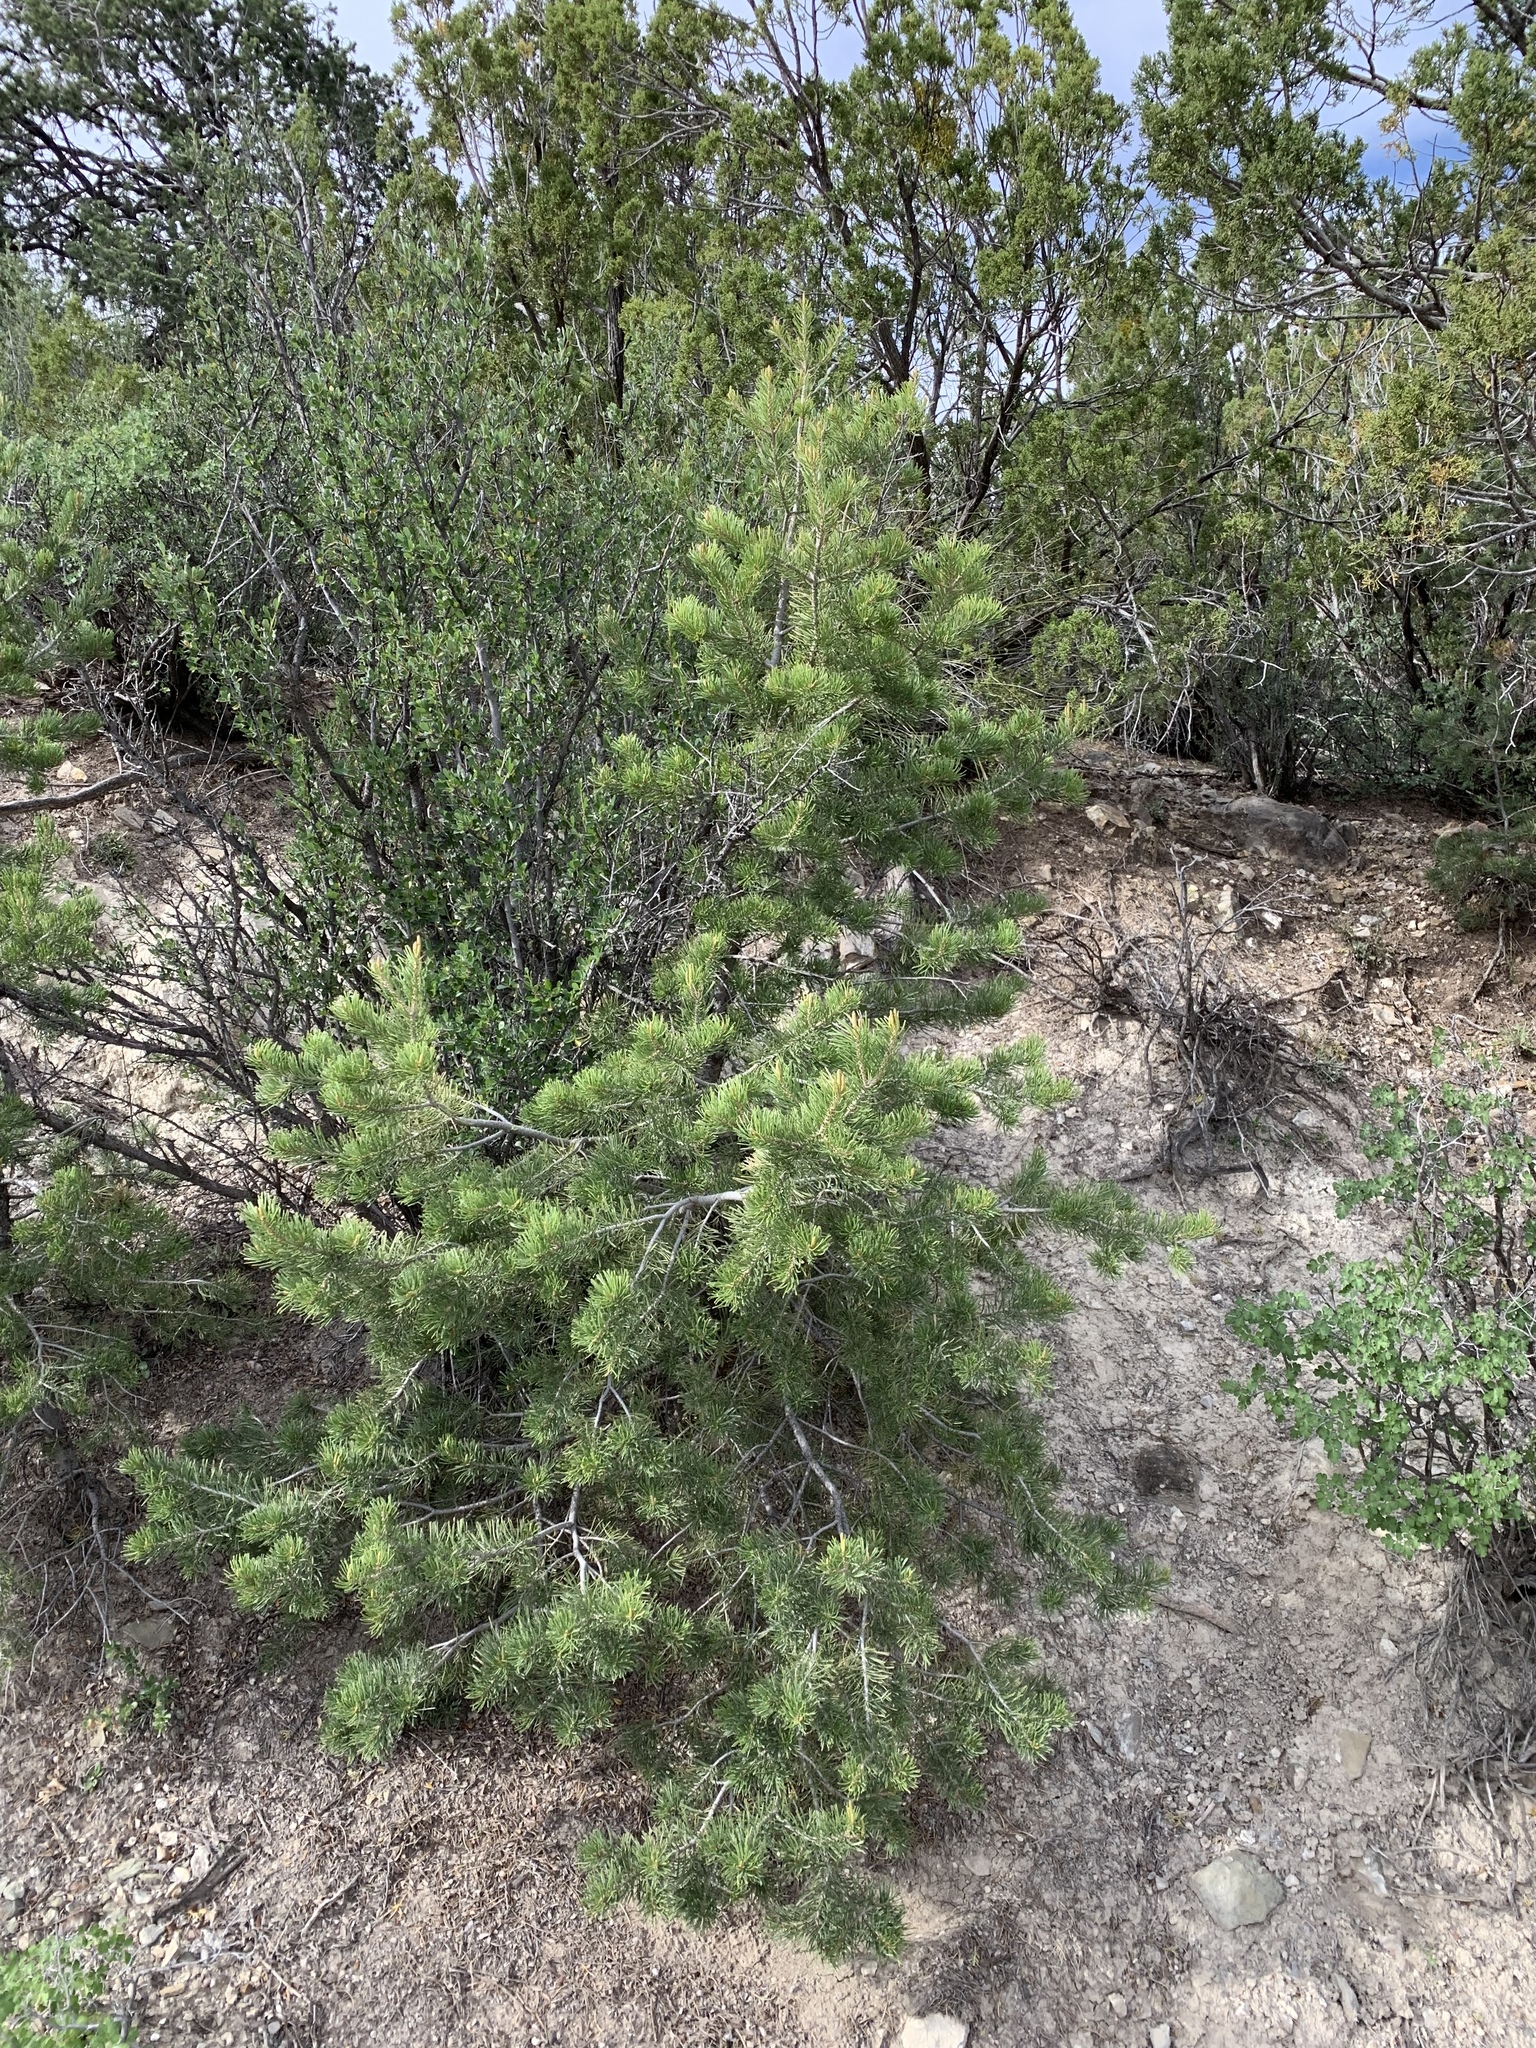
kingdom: Plantae
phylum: Tracheophyta
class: Pinopsida
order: Pinales
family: Pinaceae
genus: Pinus
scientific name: Pinus edulis
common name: Colorado pinyon
